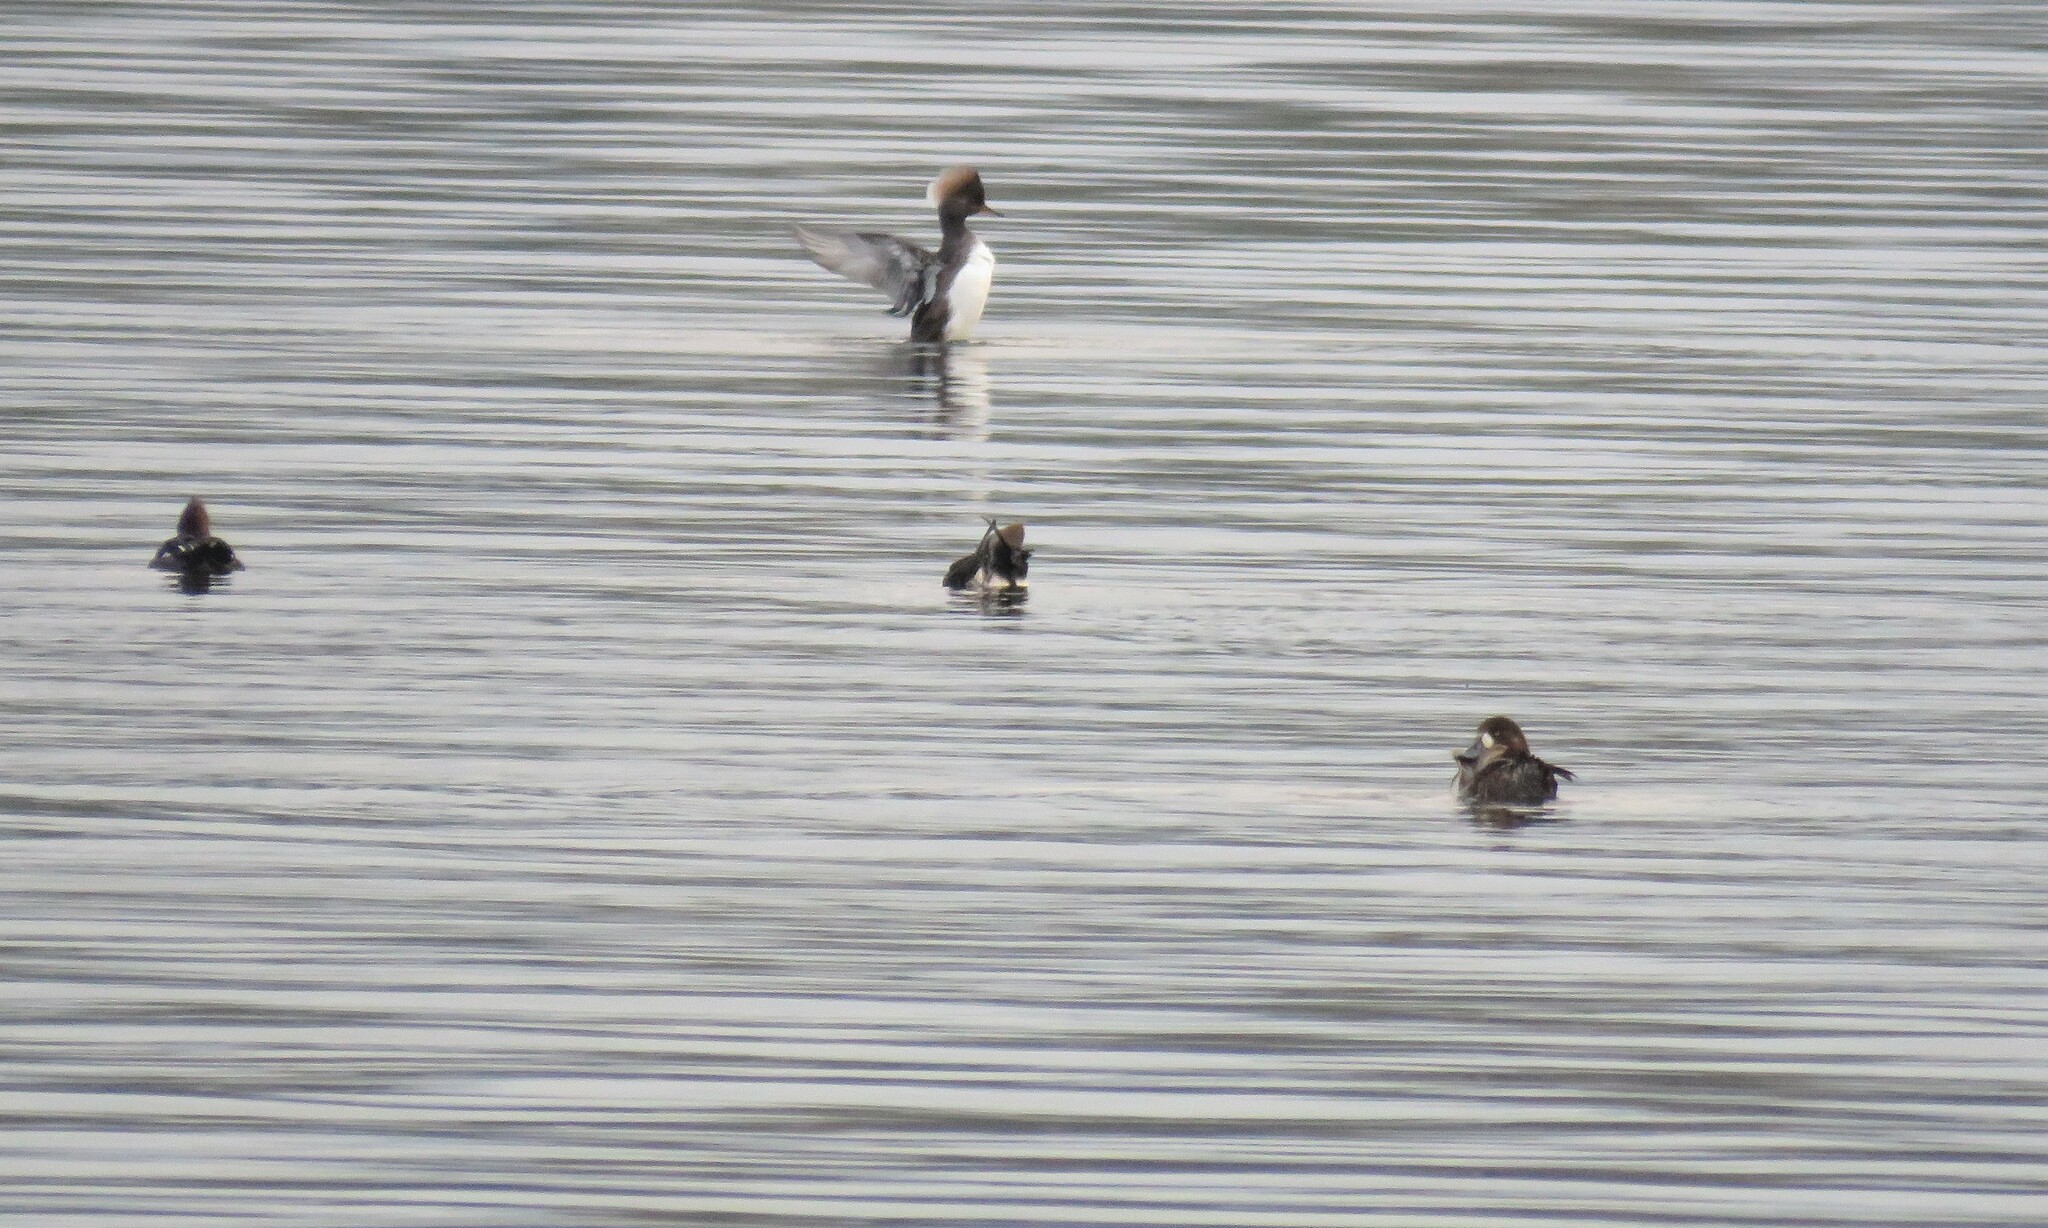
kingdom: Animalia
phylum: Chordata
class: Aves
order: Anseriformes
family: Anatidae
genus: Aythya
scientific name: Aythya marila
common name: Greater scaup
